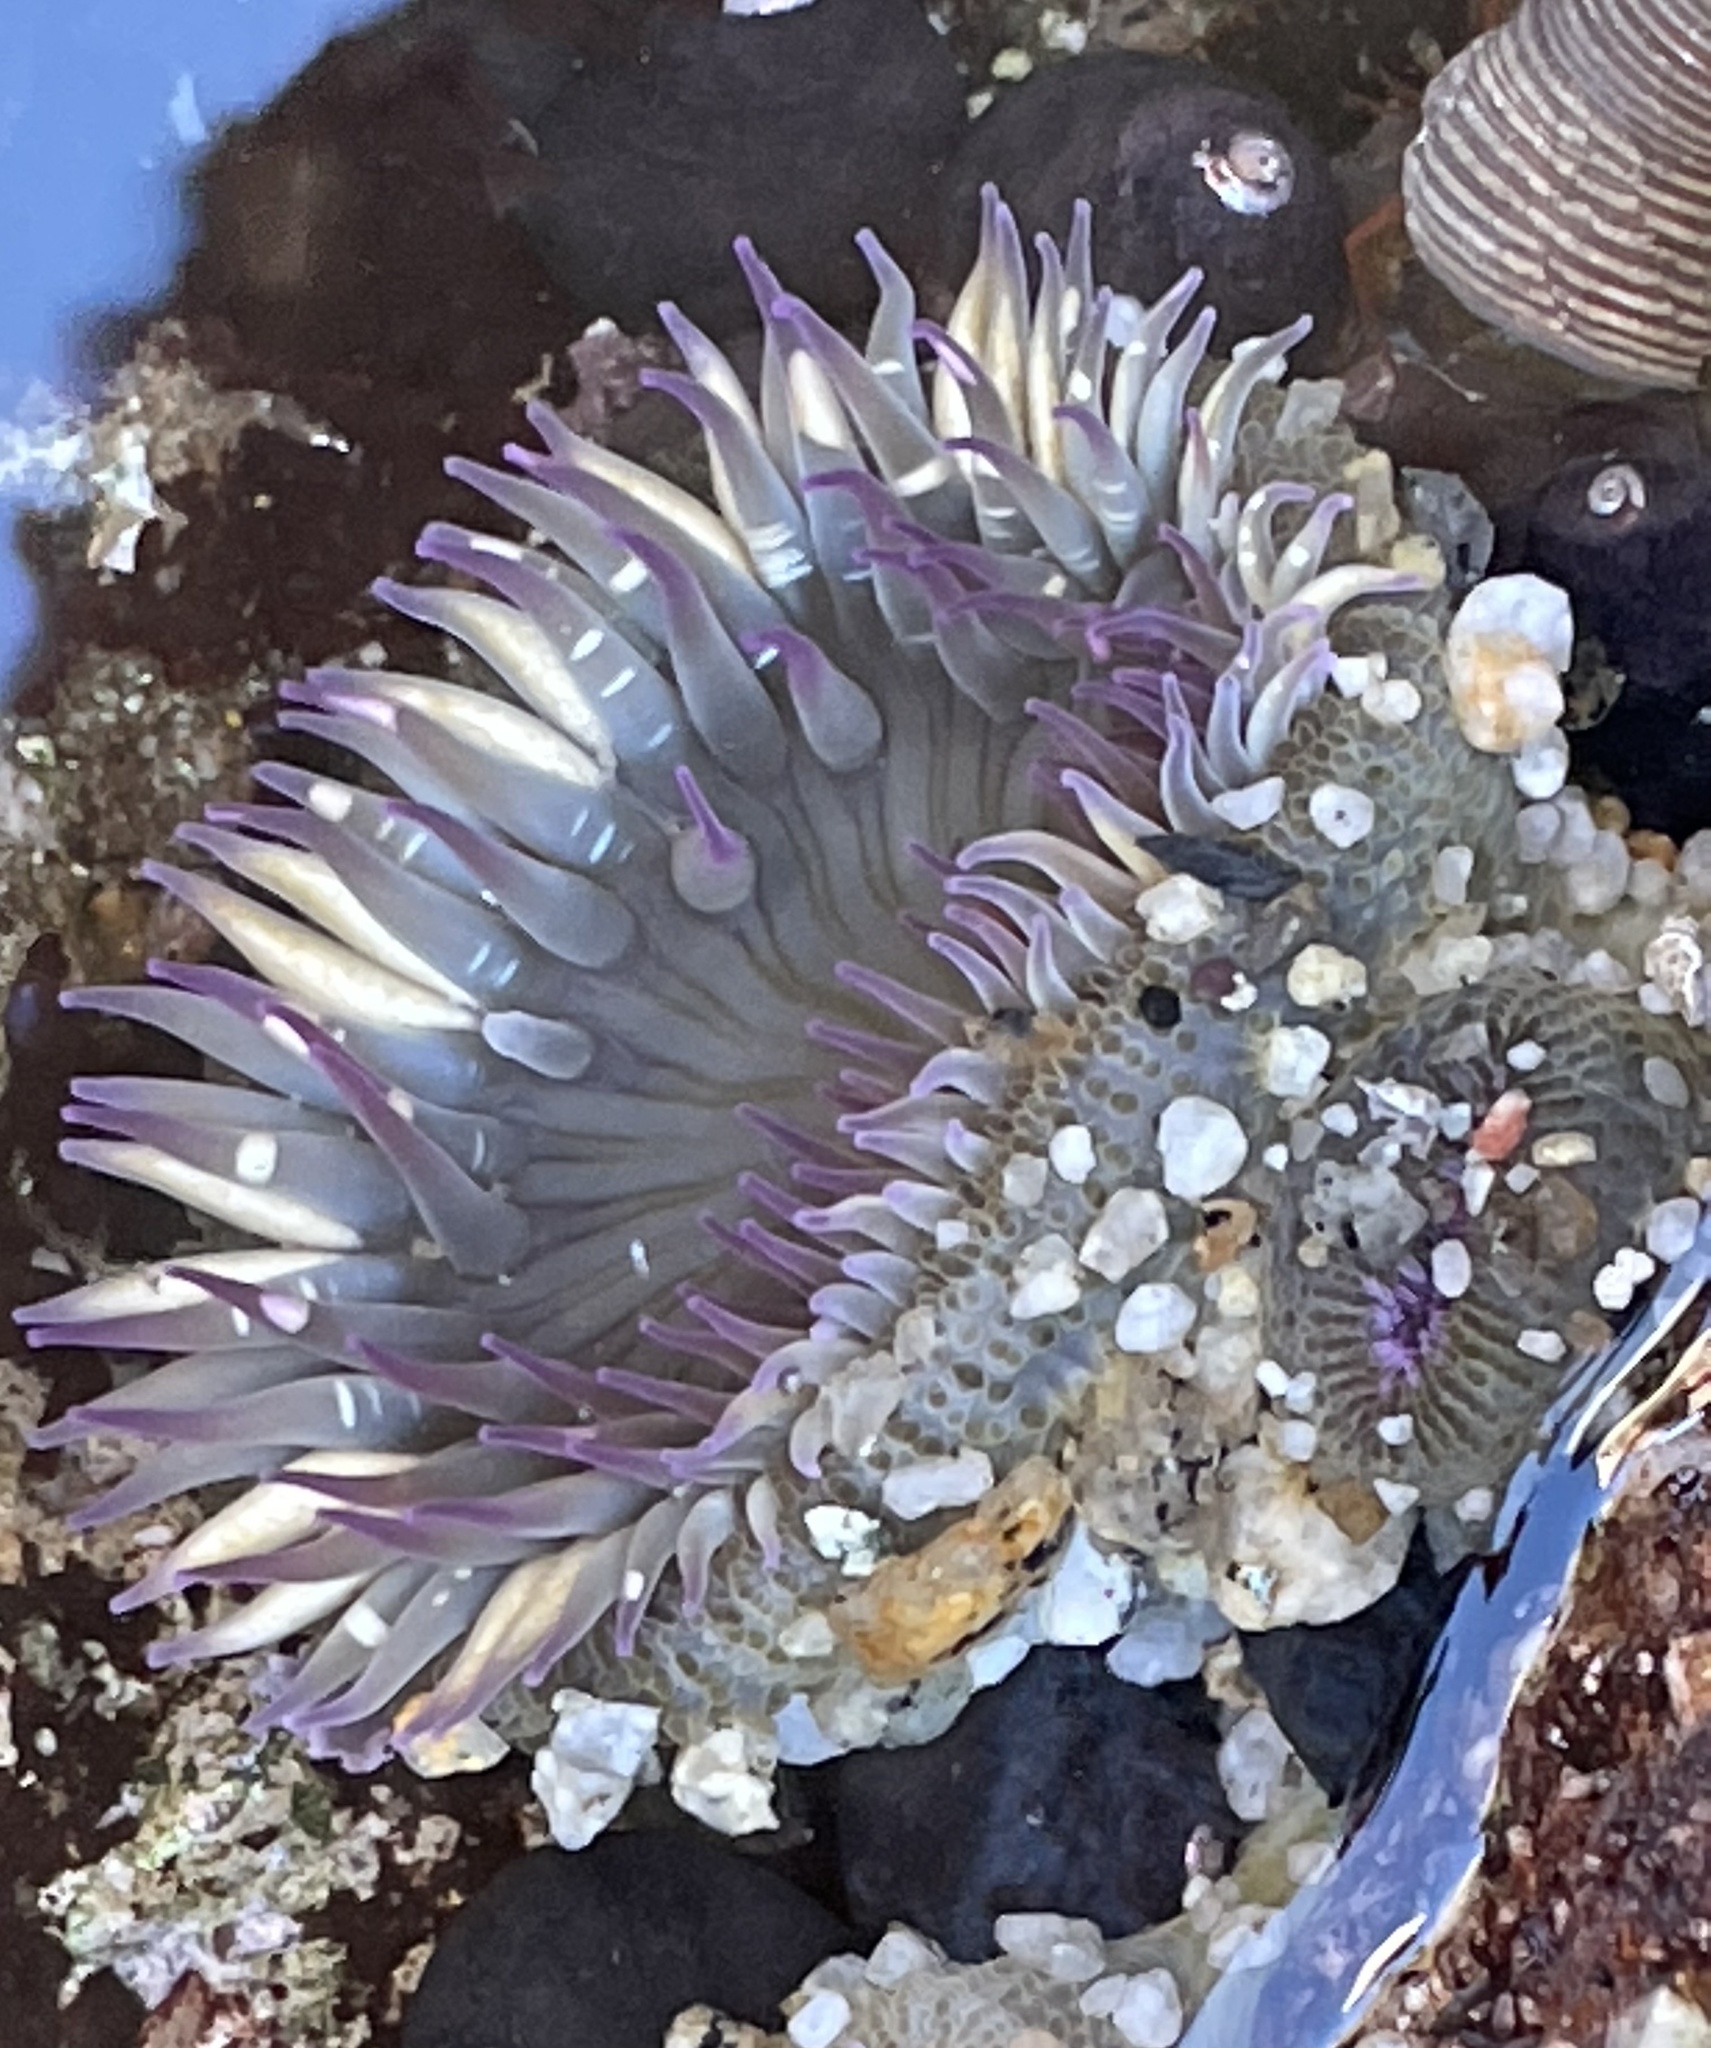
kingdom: Animalia
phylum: Cnidaria
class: Anthozoa
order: Actiniaria
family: Actiniidae
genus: Anthopleura
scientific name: Anthopleura elegantissima
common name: Clonal anemone
